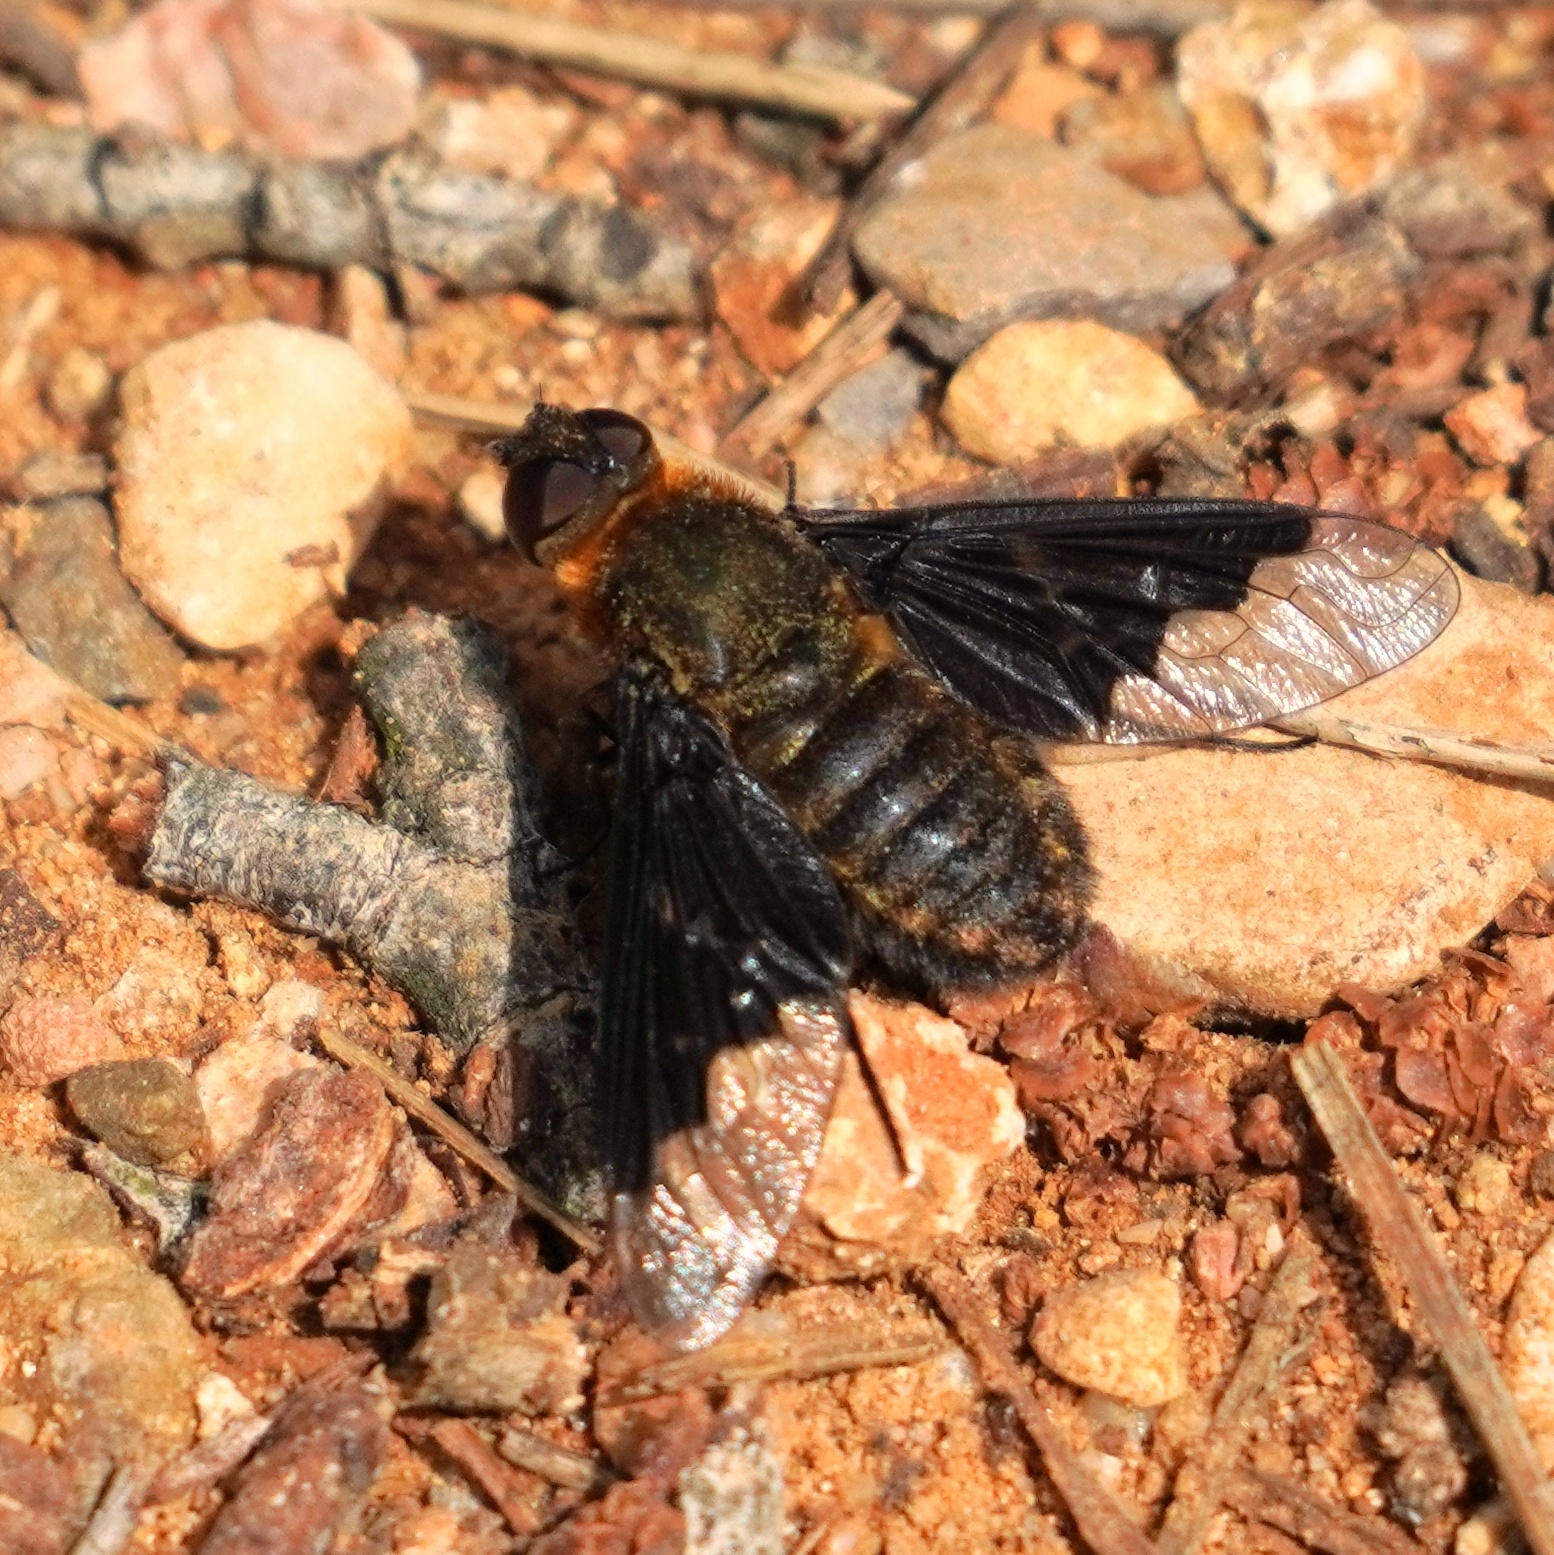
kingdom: Animalia
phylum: Arthropoda
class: Insecta
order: Diptera
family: Bombyliidae
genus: Hemipenthes
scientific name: Hemipenthes morio
